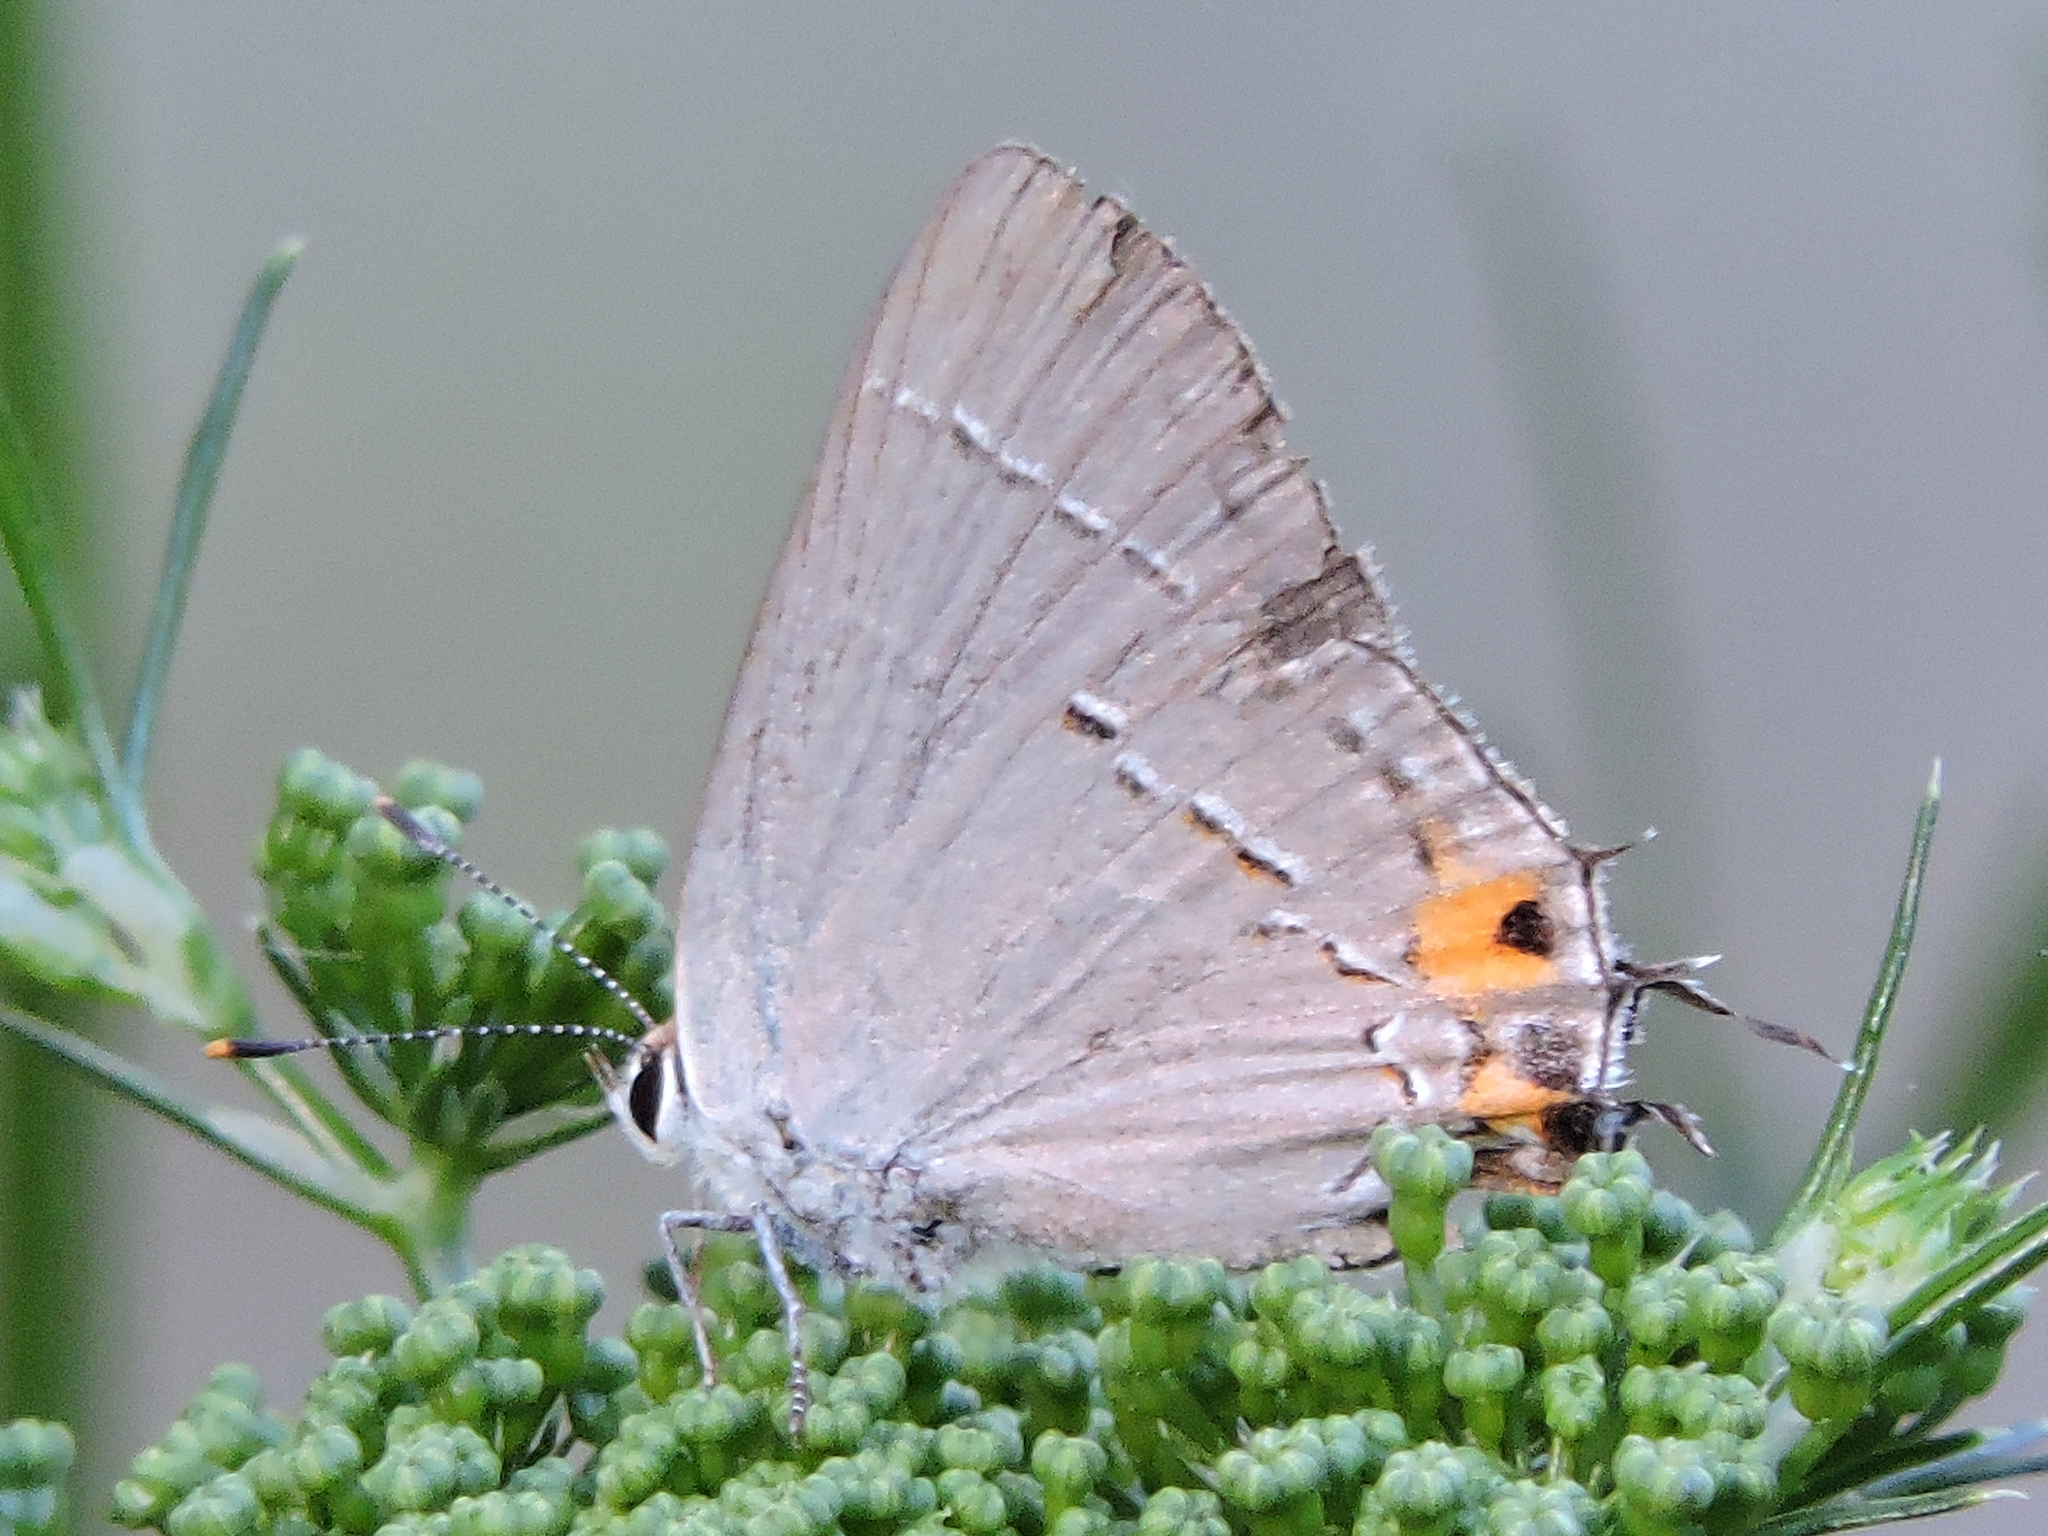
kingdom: Animalia
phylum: Arthropoda
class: Insecta
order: Lepidoptera
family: Lycaenidae
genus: Strymon
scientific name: Strymon melinus
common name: Gray hairstreak
